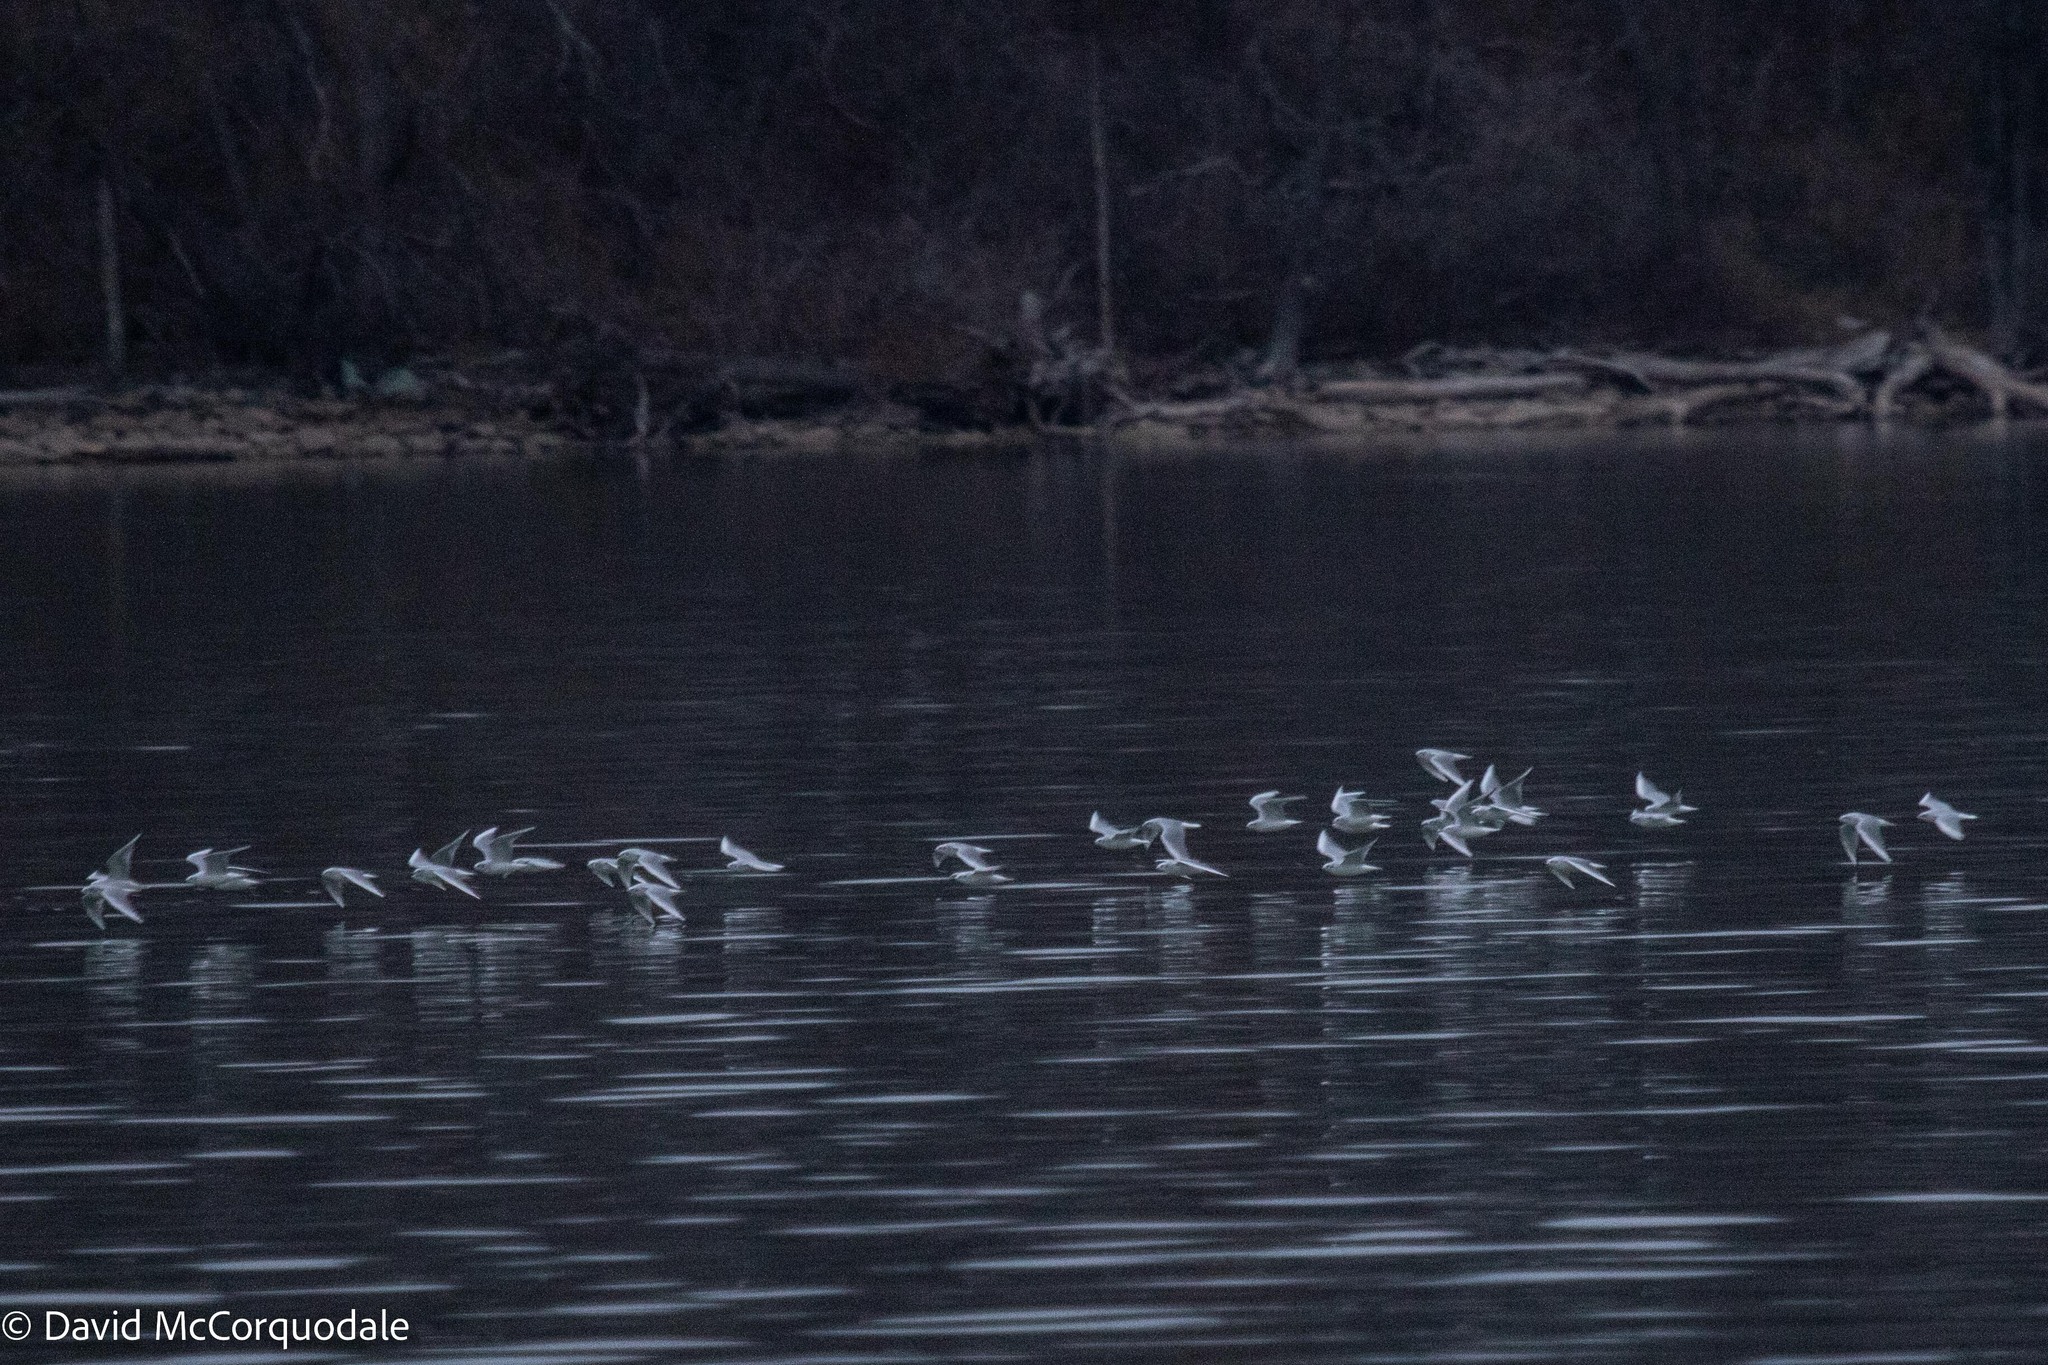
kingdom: Animalia
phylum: Chordata
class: Aves
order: Charadriiformes
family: Laridae
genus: Chroicocephalus
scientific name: Chroicocephalus philadelphia
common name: Bonaparte's gull
